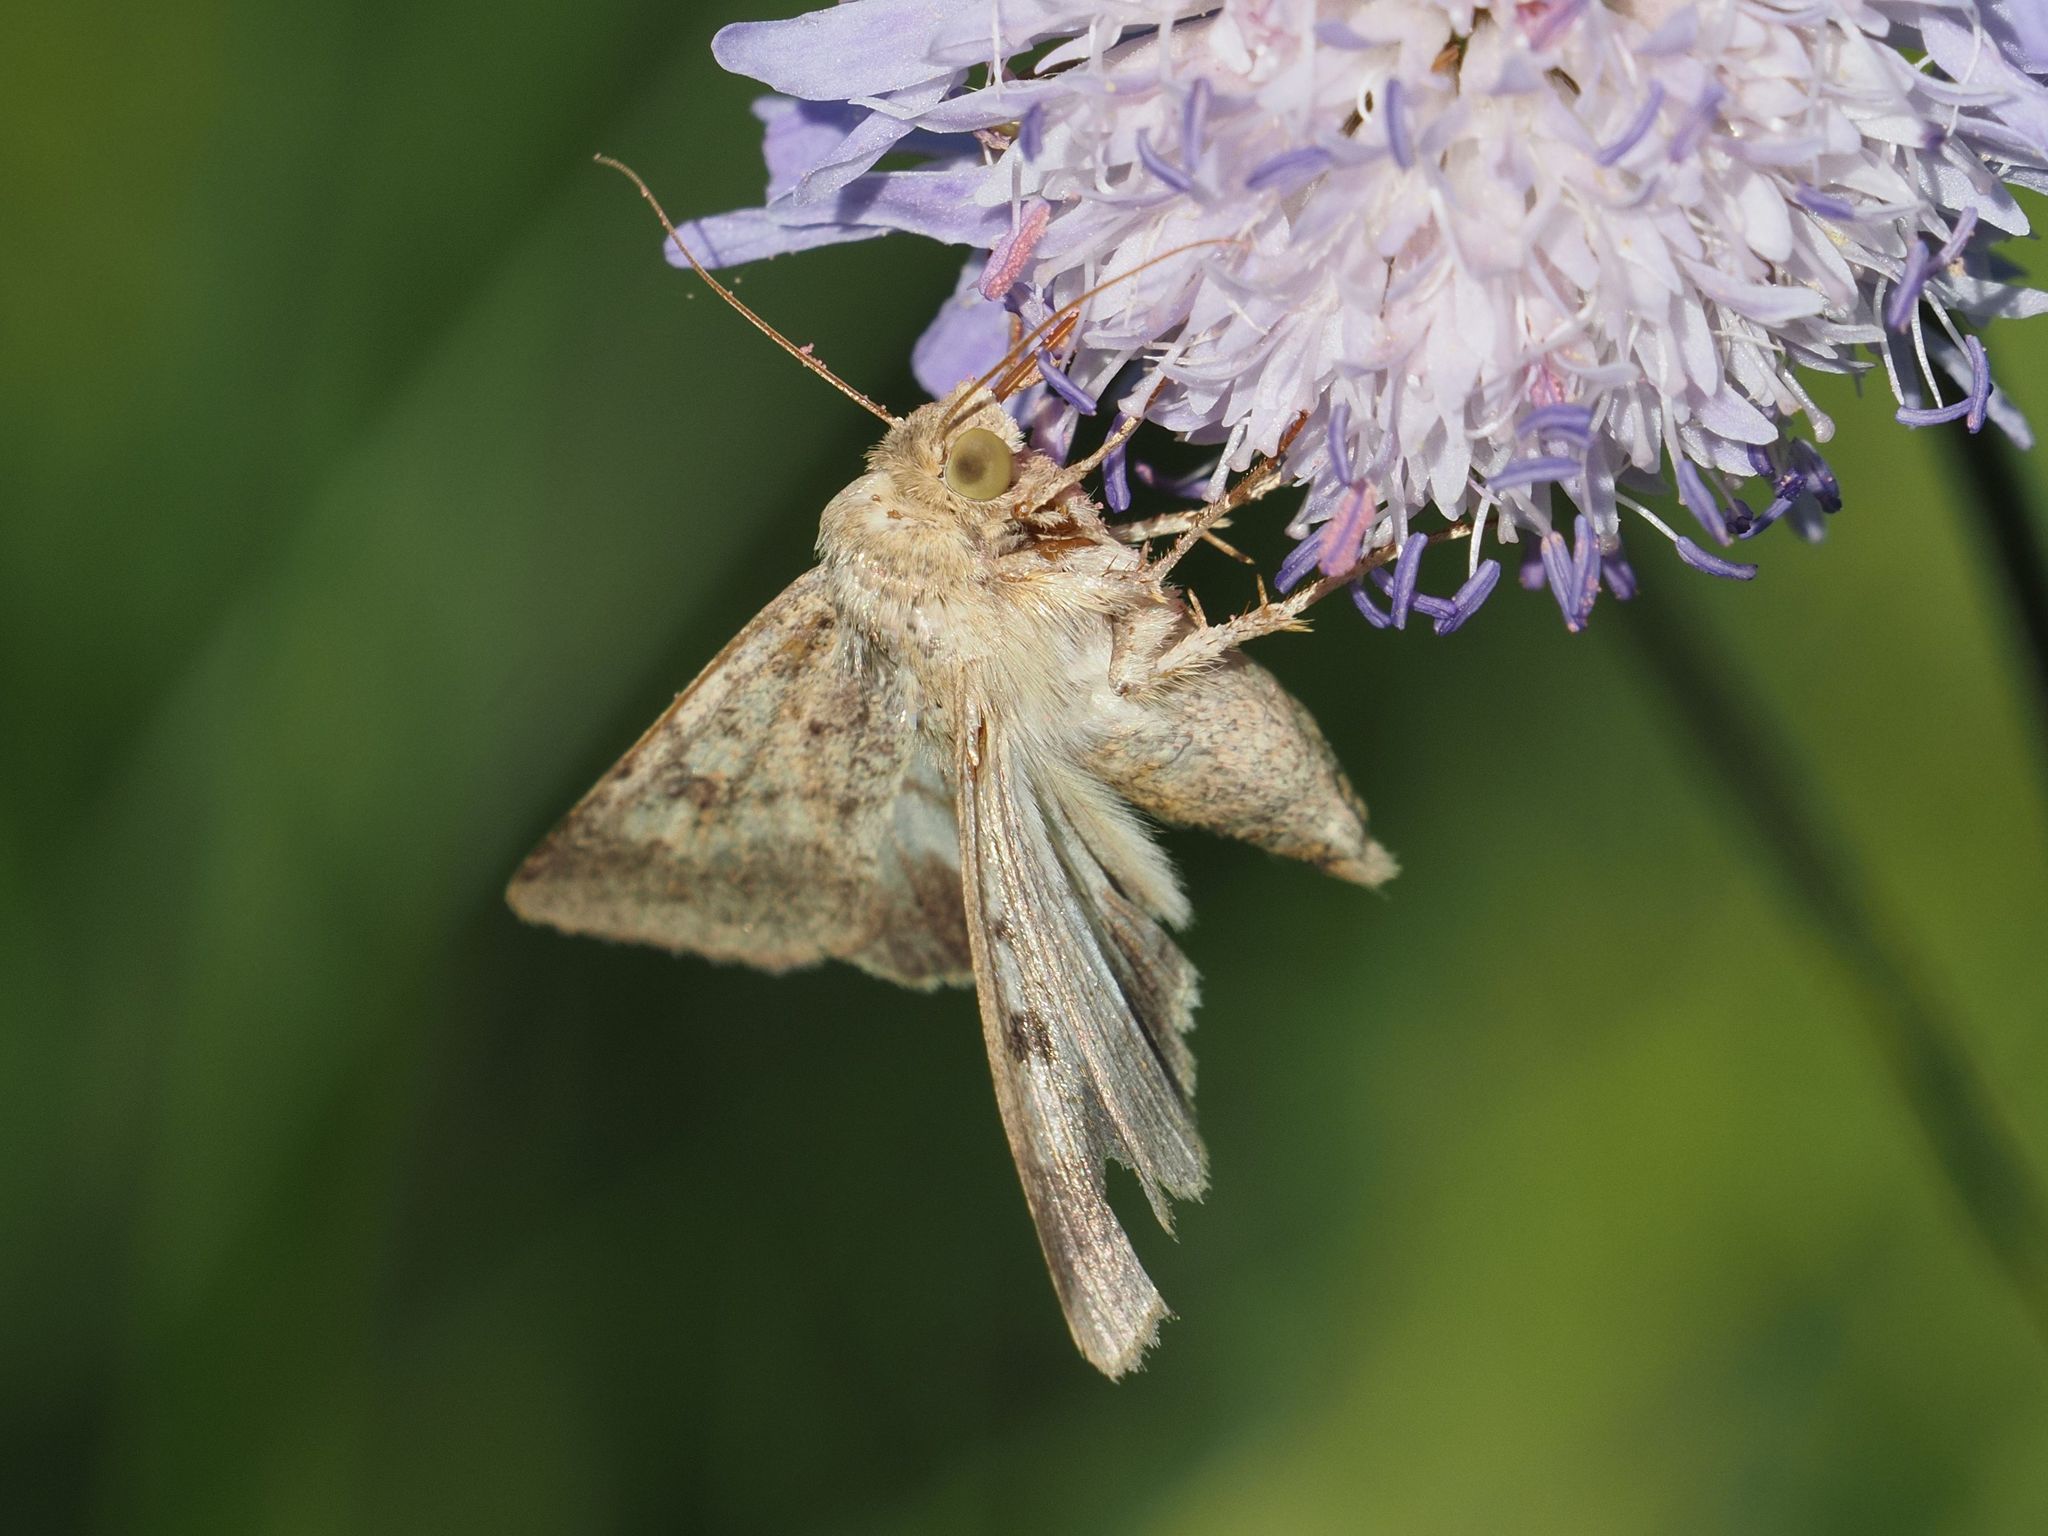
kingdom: Animalia
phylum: Arthropoda
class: Insecta
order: Lepidoptera
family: Noctuidae
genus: Helicoverpa
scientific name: Helicoverpa armigera
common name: Cotton bollworm
